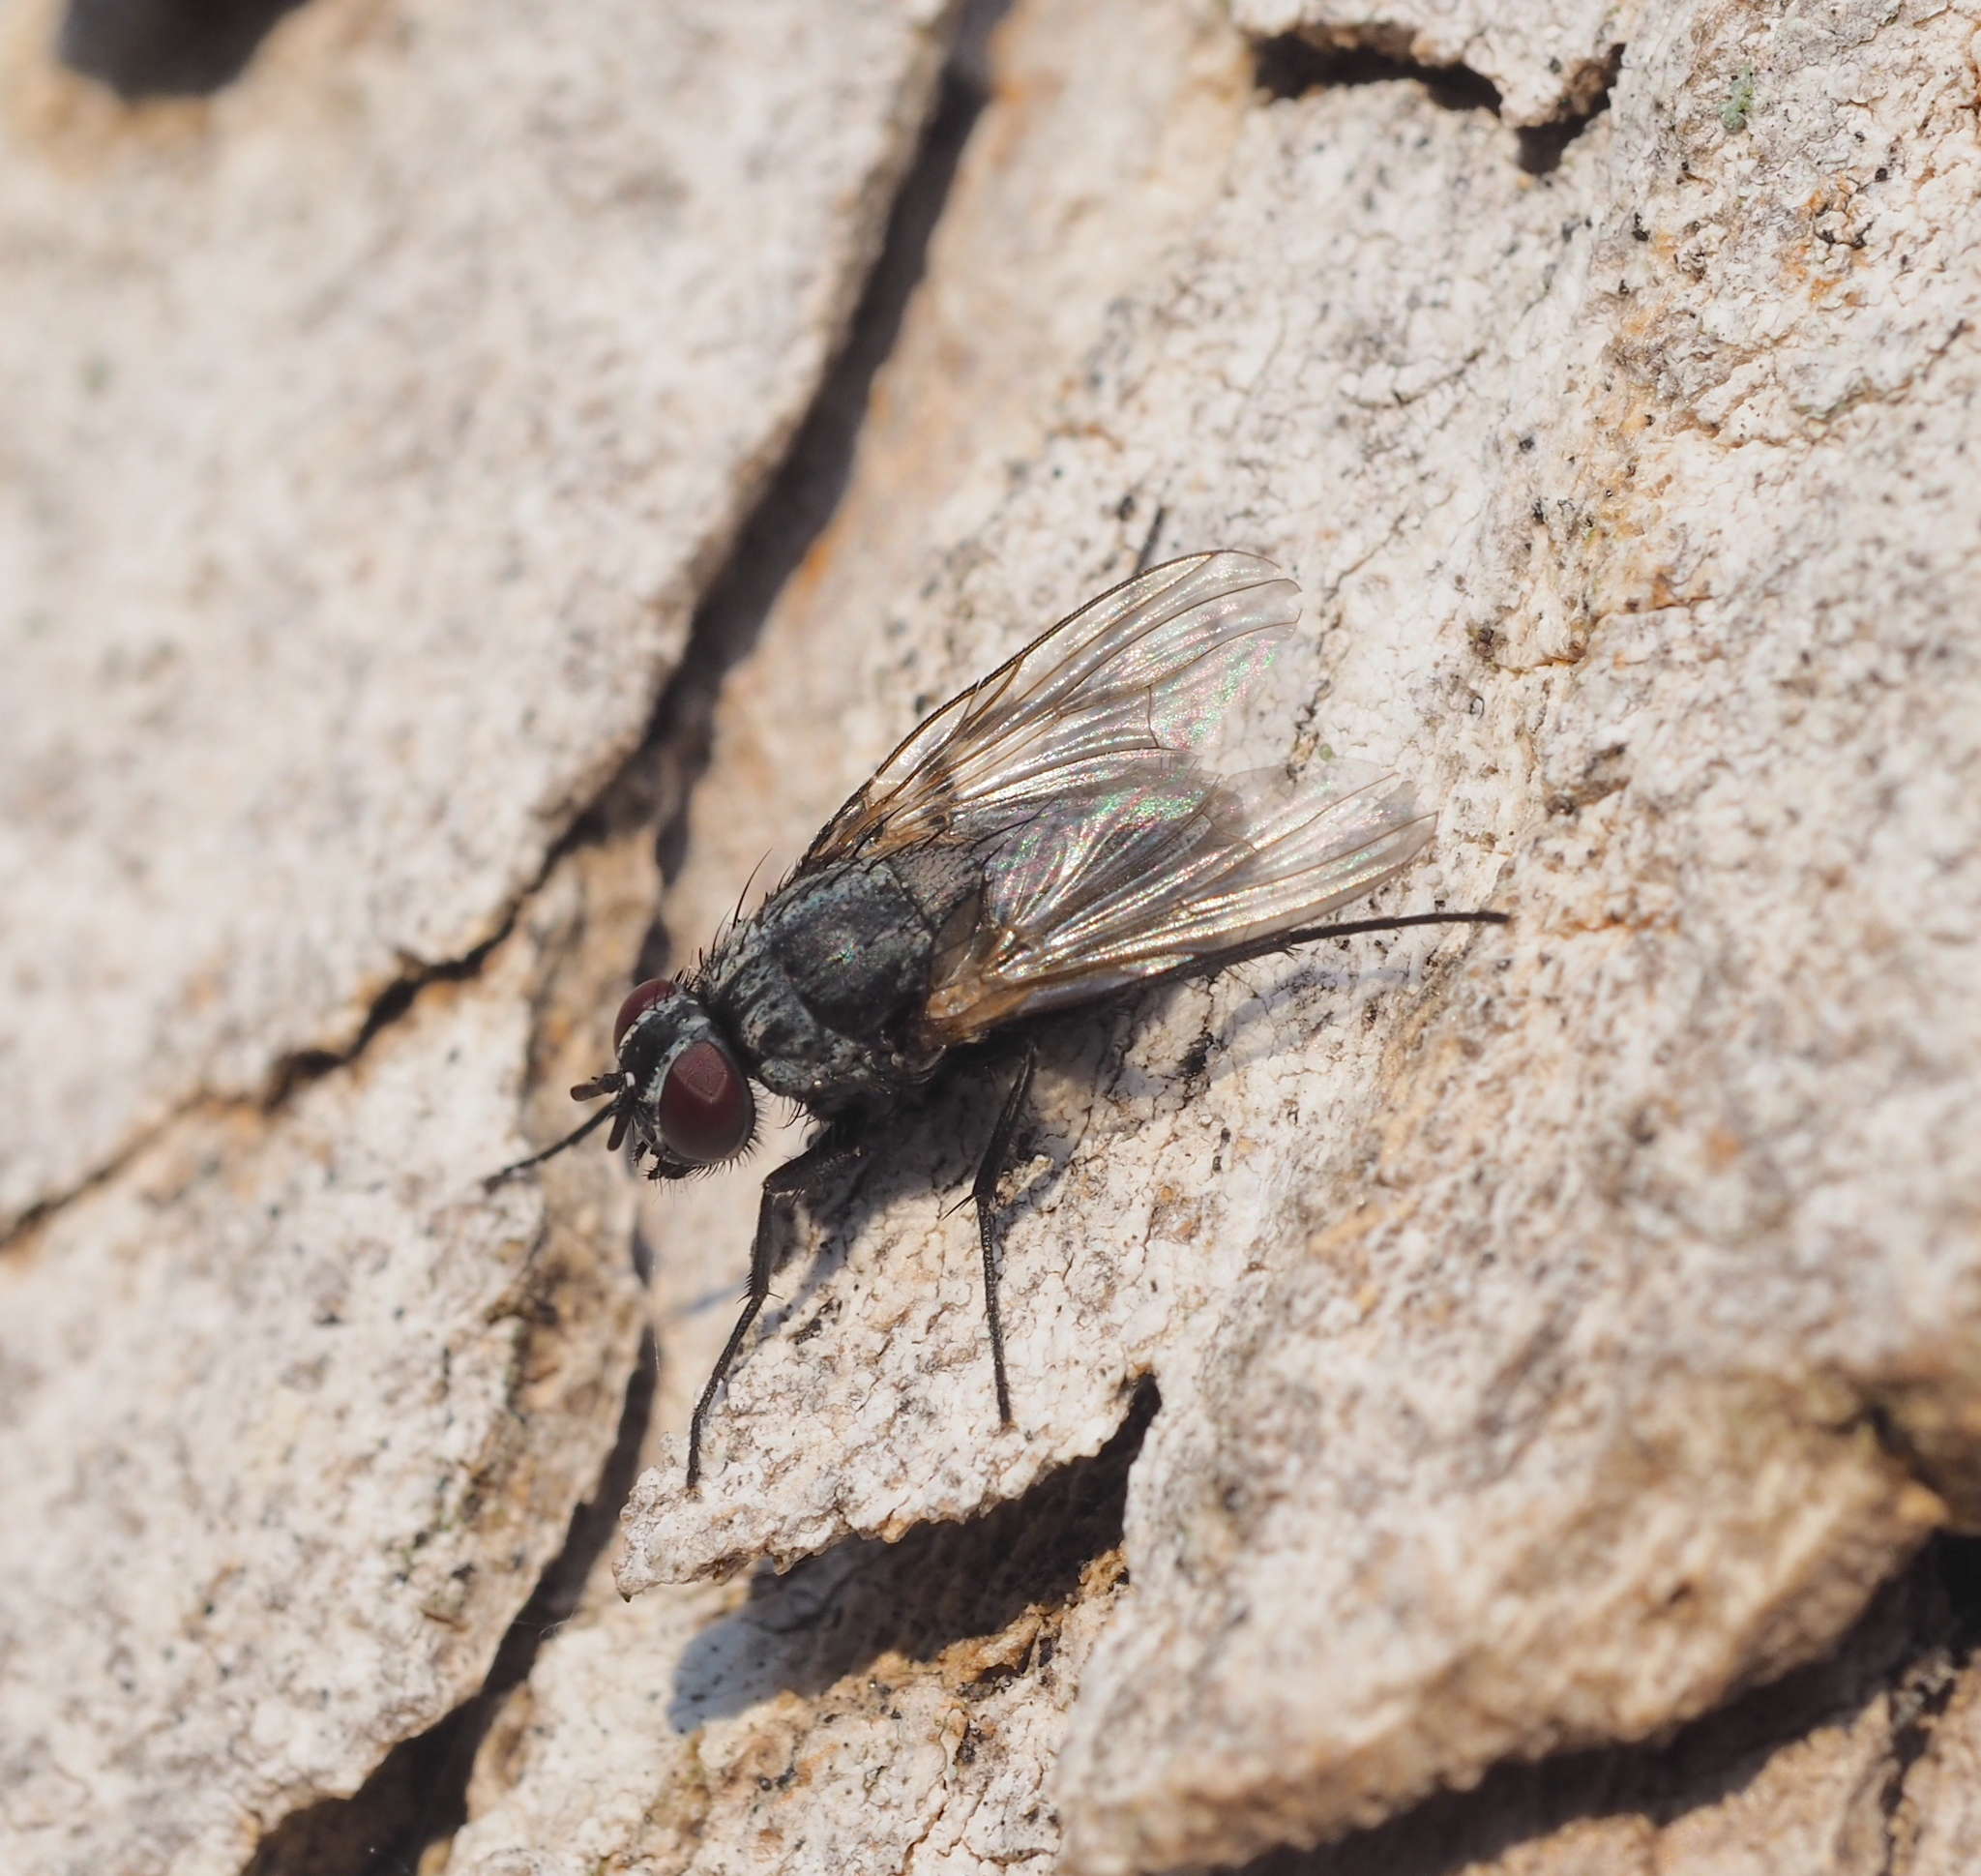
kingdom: Animalia
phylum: Arthropoda
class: Insecta
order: Diptera
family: Muscidae
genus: Potamia
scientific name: Potamia littoralis
